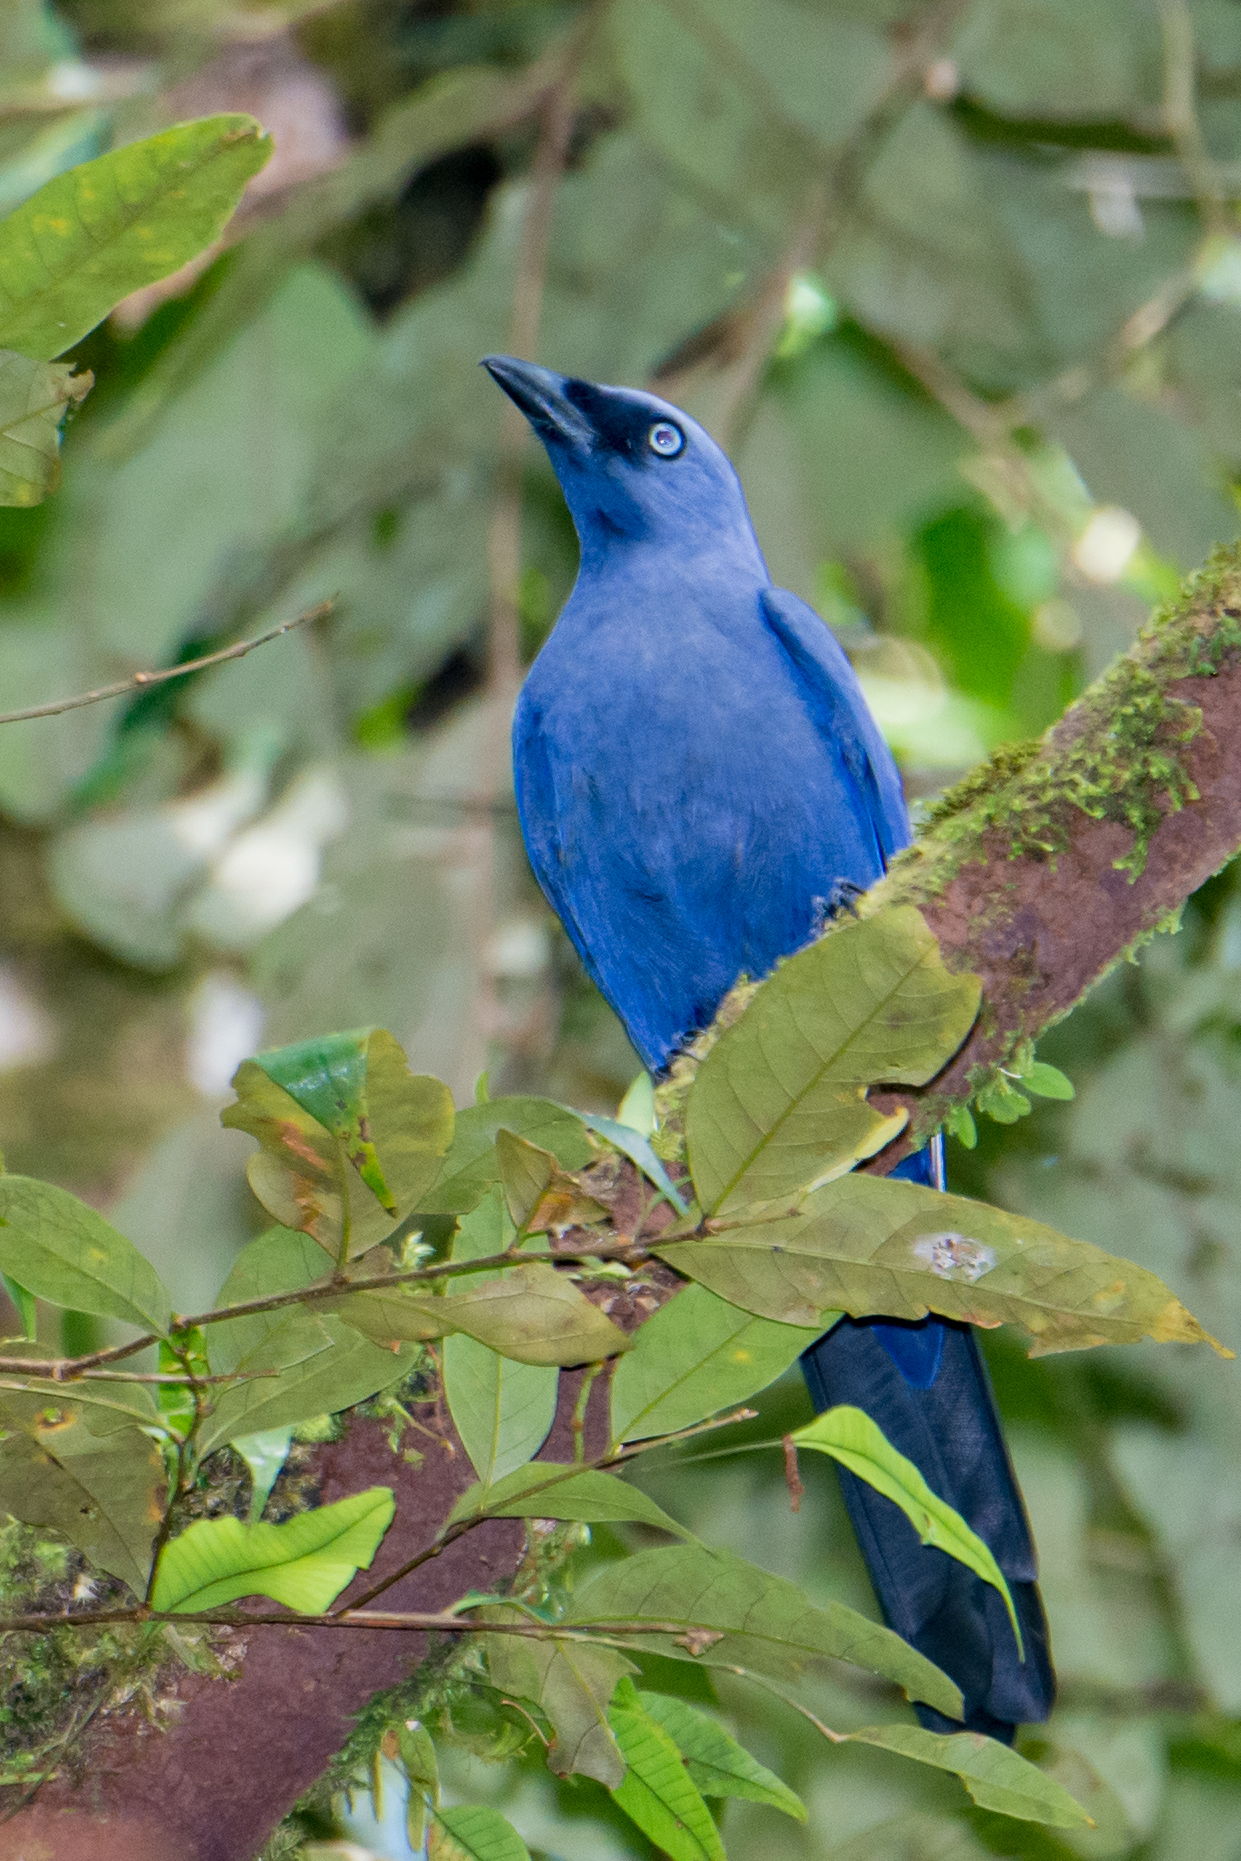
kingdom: Animalia
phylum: Chordata
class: Aves
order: Passeriformes
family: Campephagidae
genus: Coracina
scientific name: Coracina temminckii
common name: Cerulean cuckooshrike
